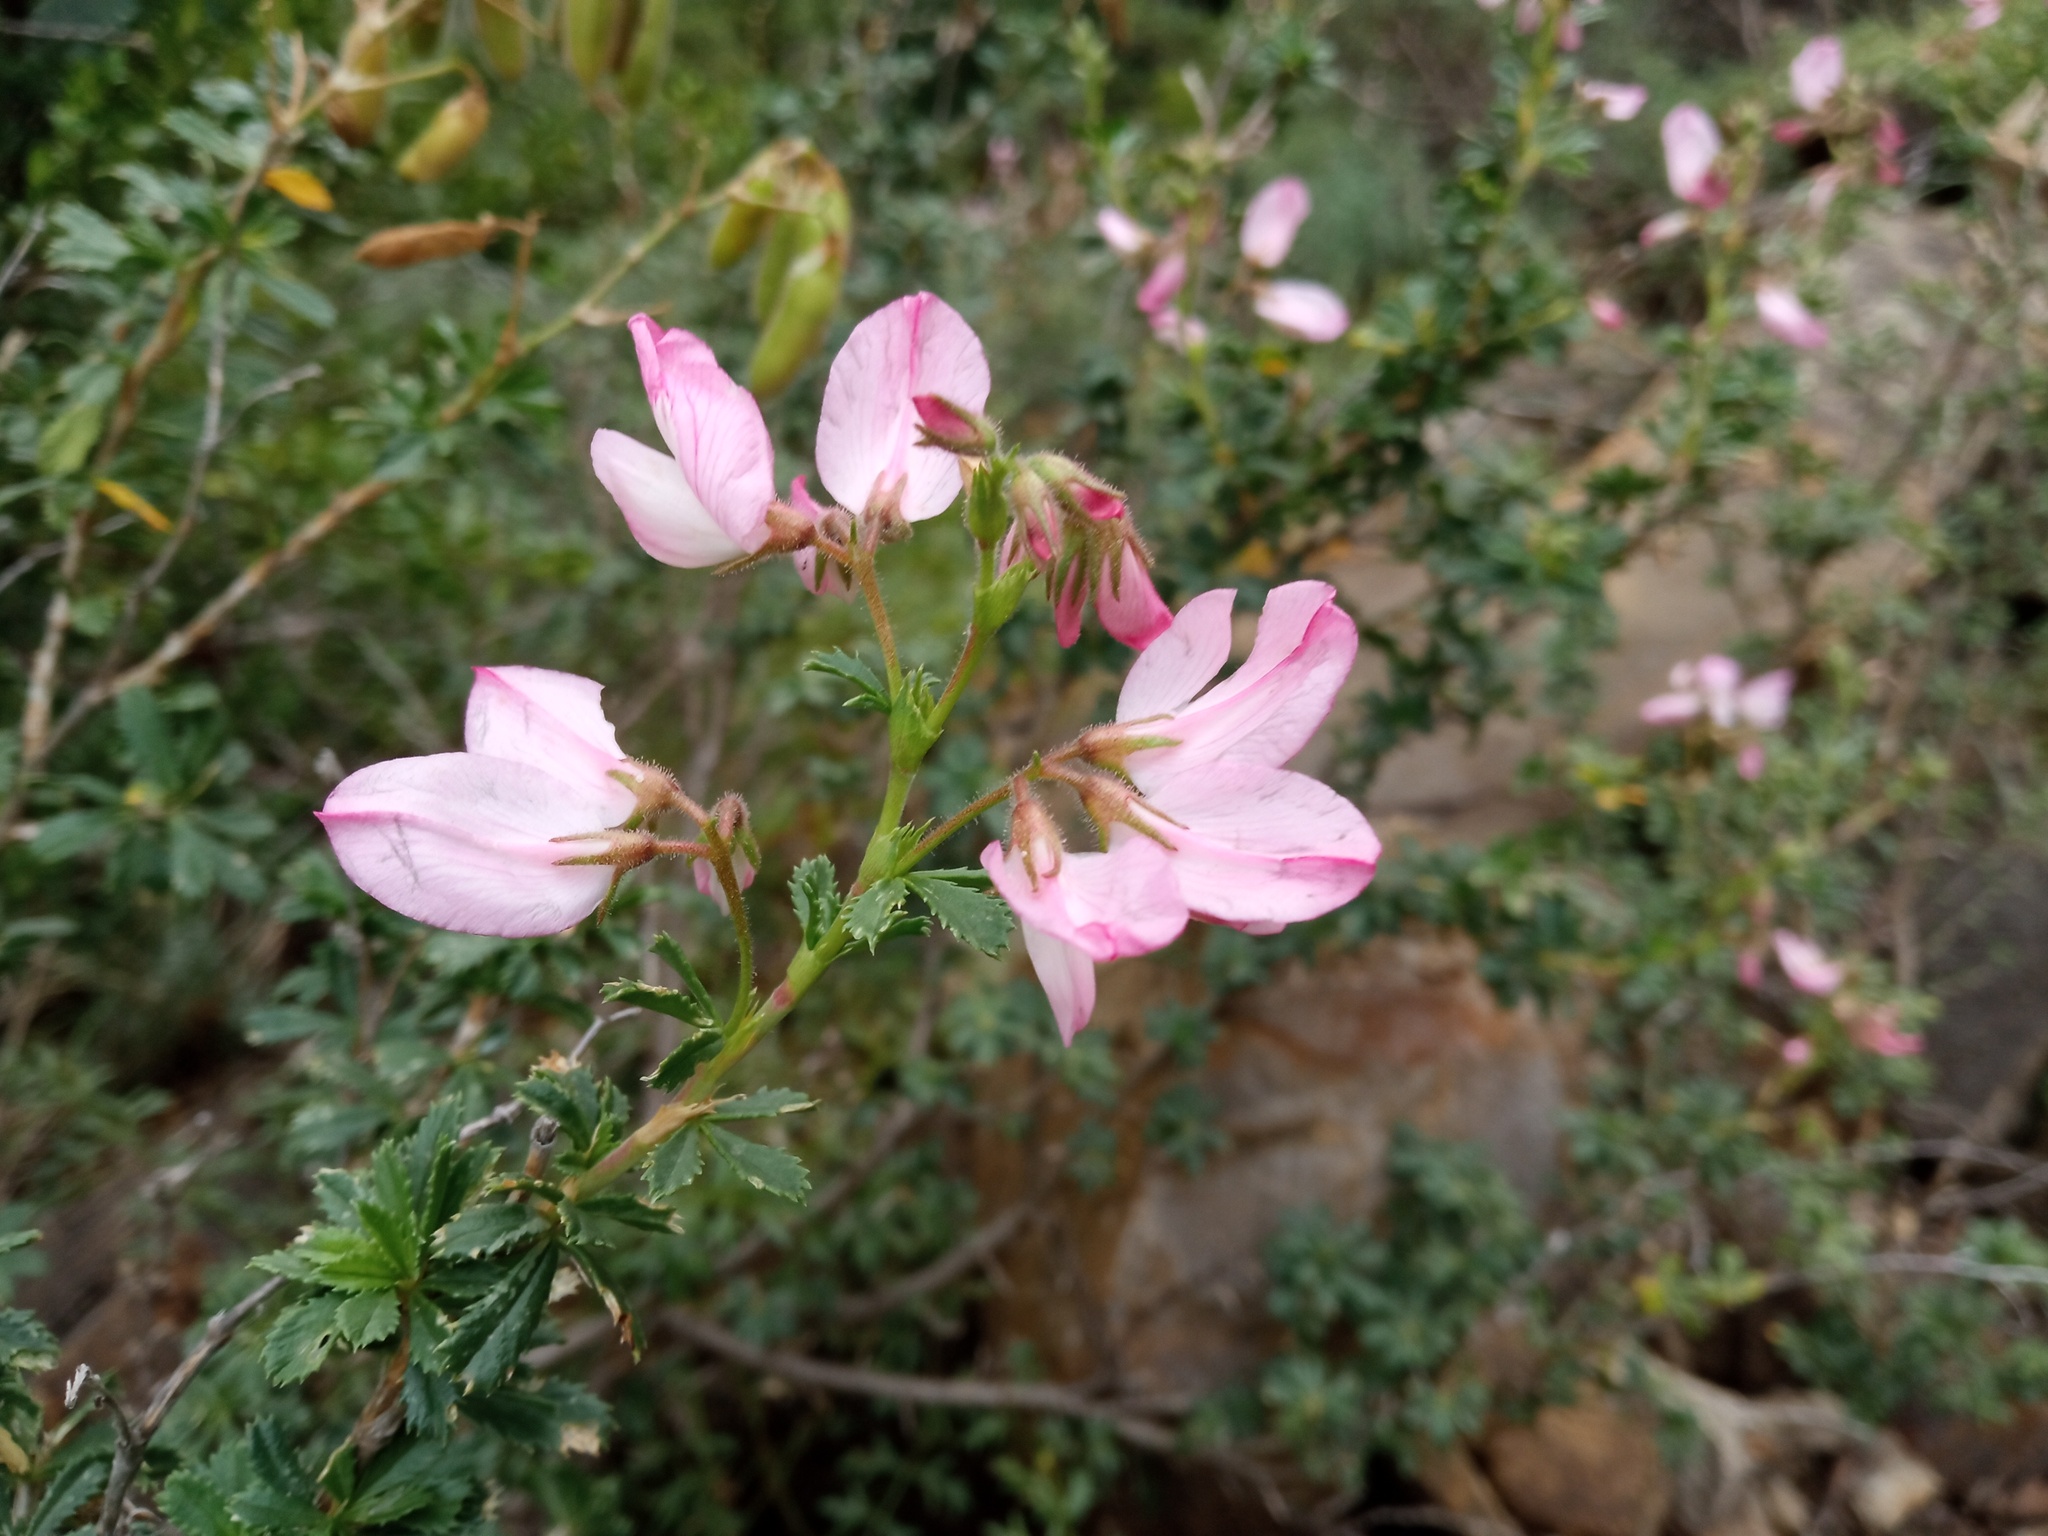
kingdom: Plantae
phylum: Tracheophyta
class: Magnoliopsida
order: Fabales
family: Fabaceae
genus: Ononis
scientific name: Ononis fruticosa
